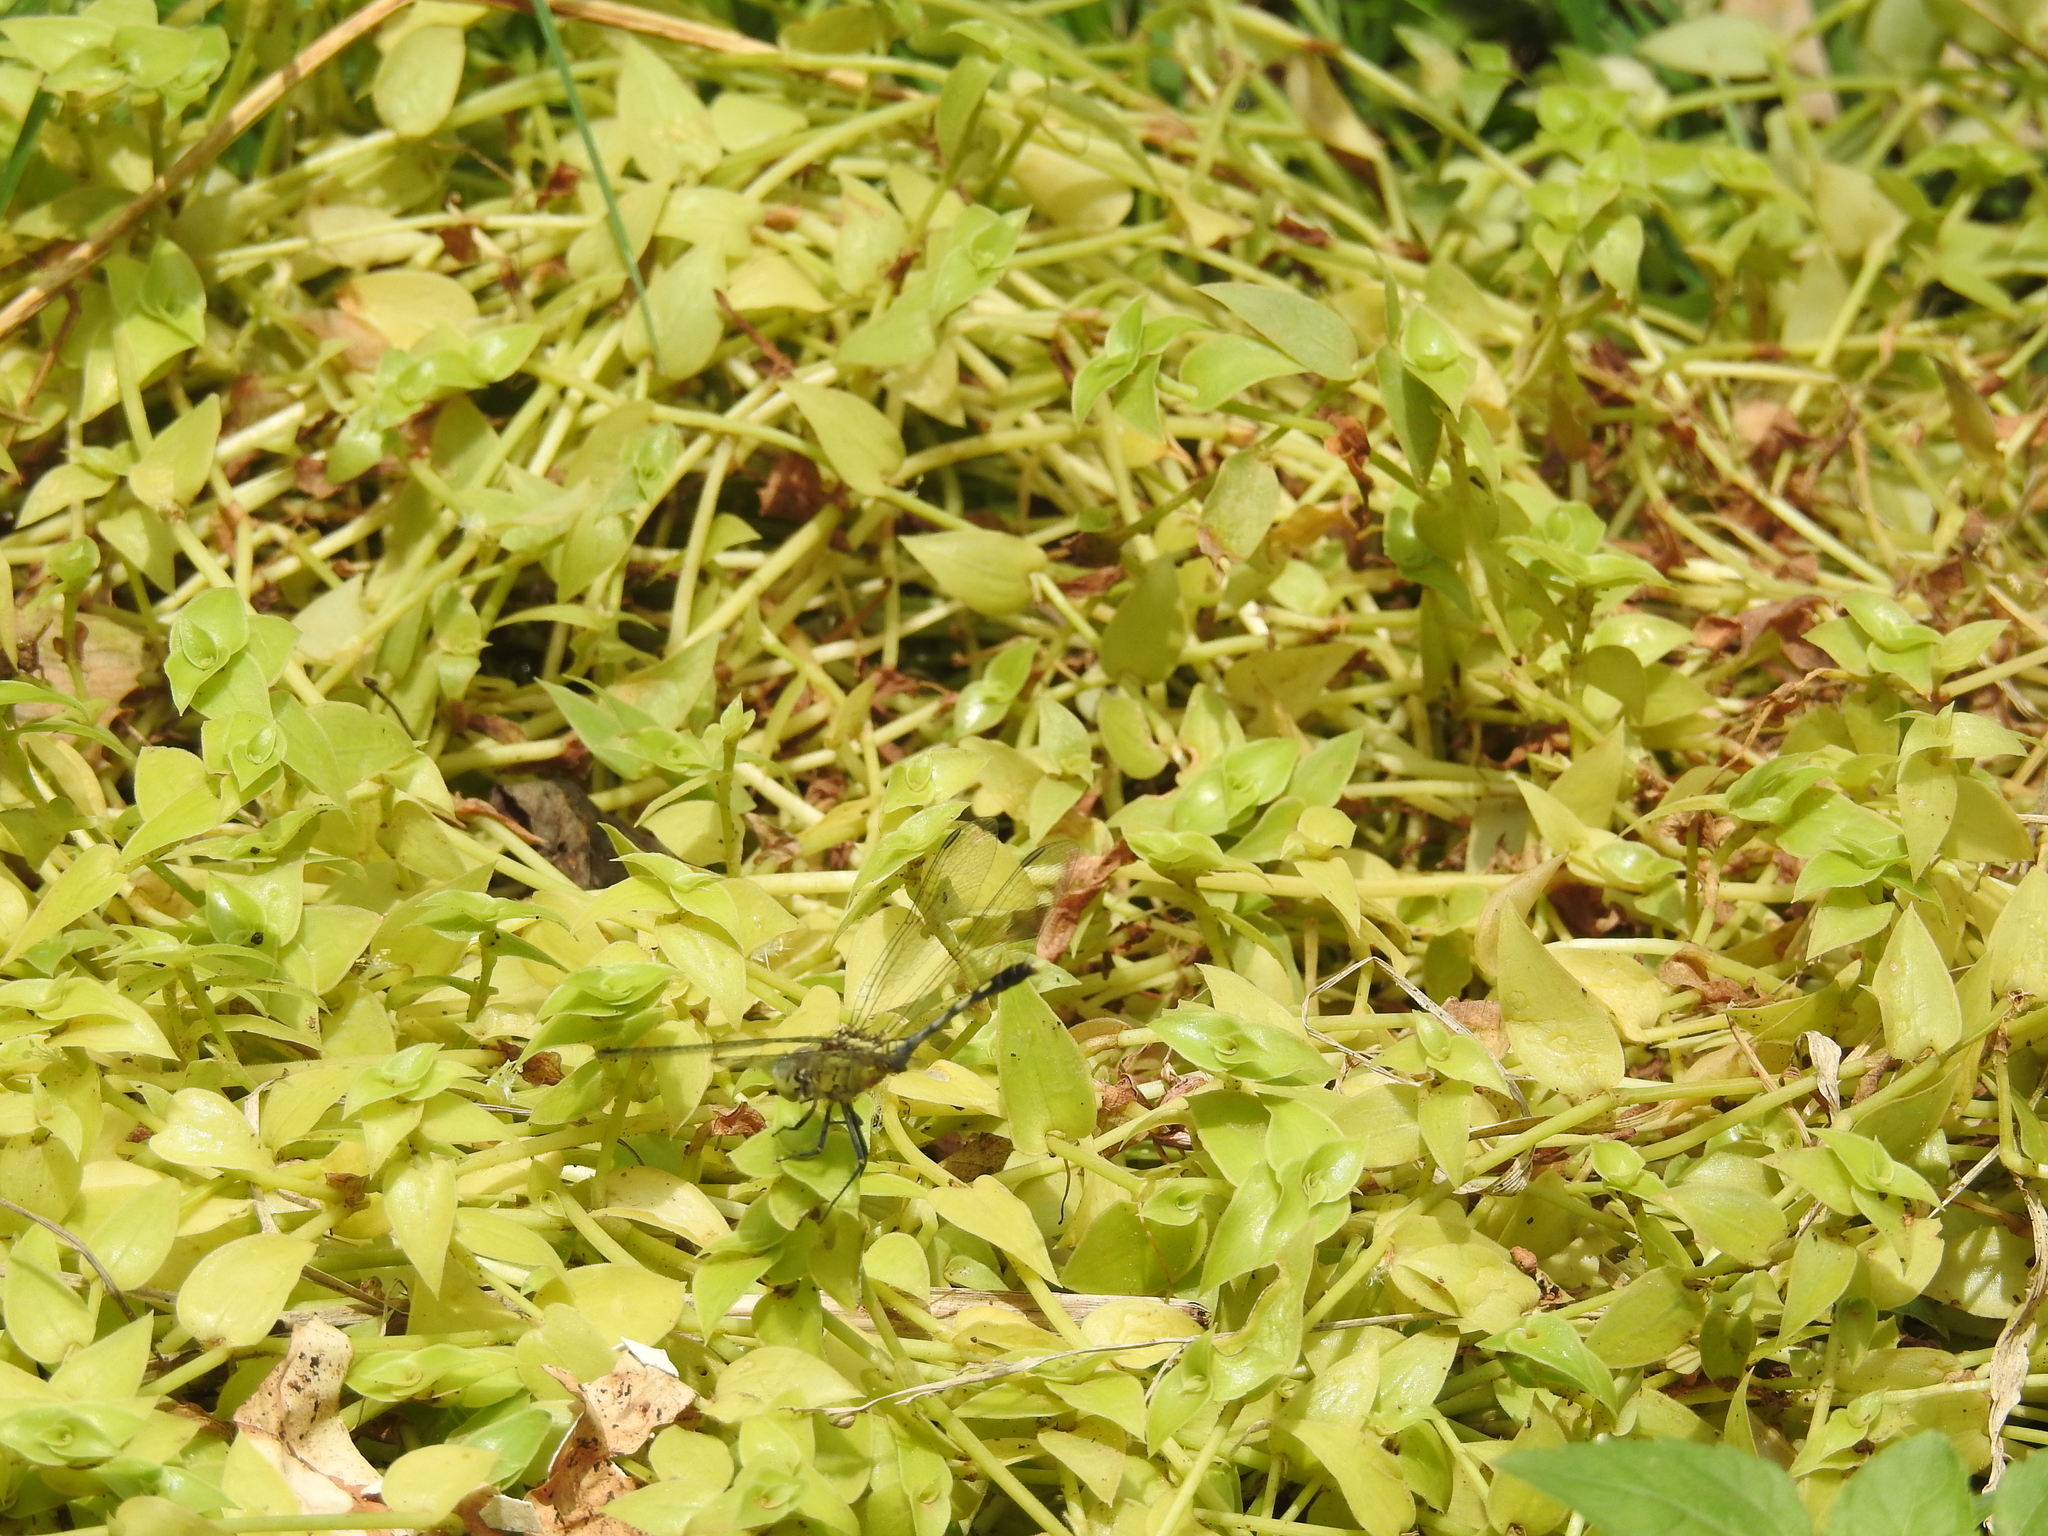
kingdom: Animalia
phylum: Arthropoda
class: Insecta
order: Odonata
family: Libellulidae
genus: Diplacodes
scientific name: Diplacodes trivialis
